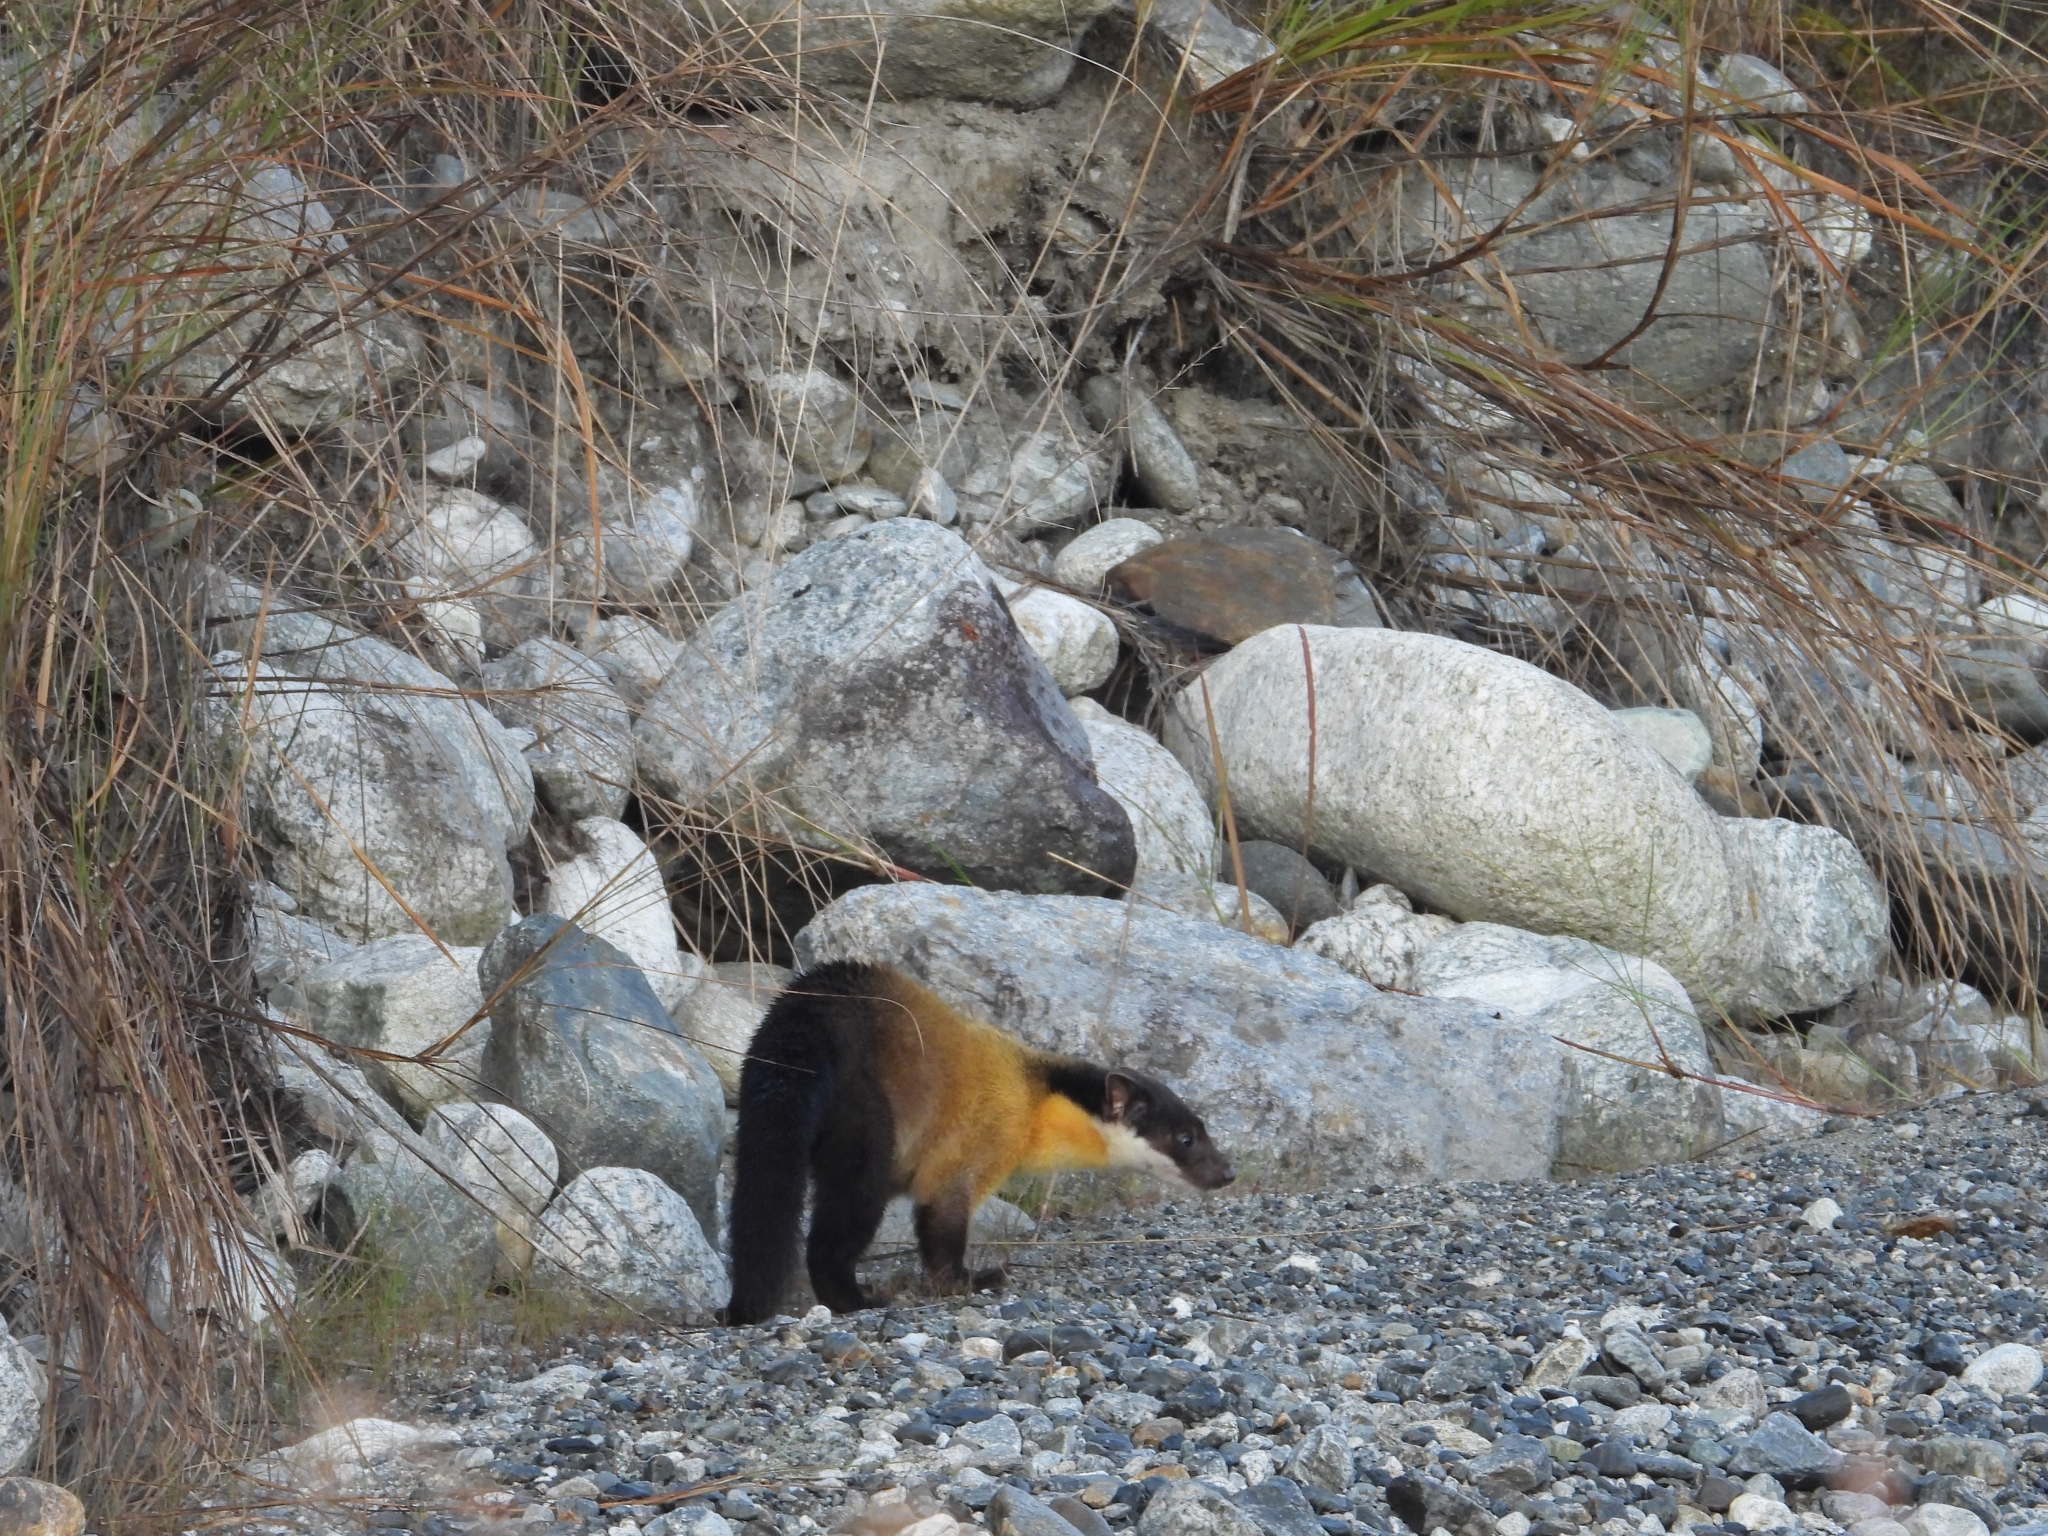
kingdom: Animalia
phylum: Chordata
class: Mammalia
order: Carnivora
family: Mustelidae
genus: Martes
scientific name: Martes flavigula
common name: Yellow-throated marten
